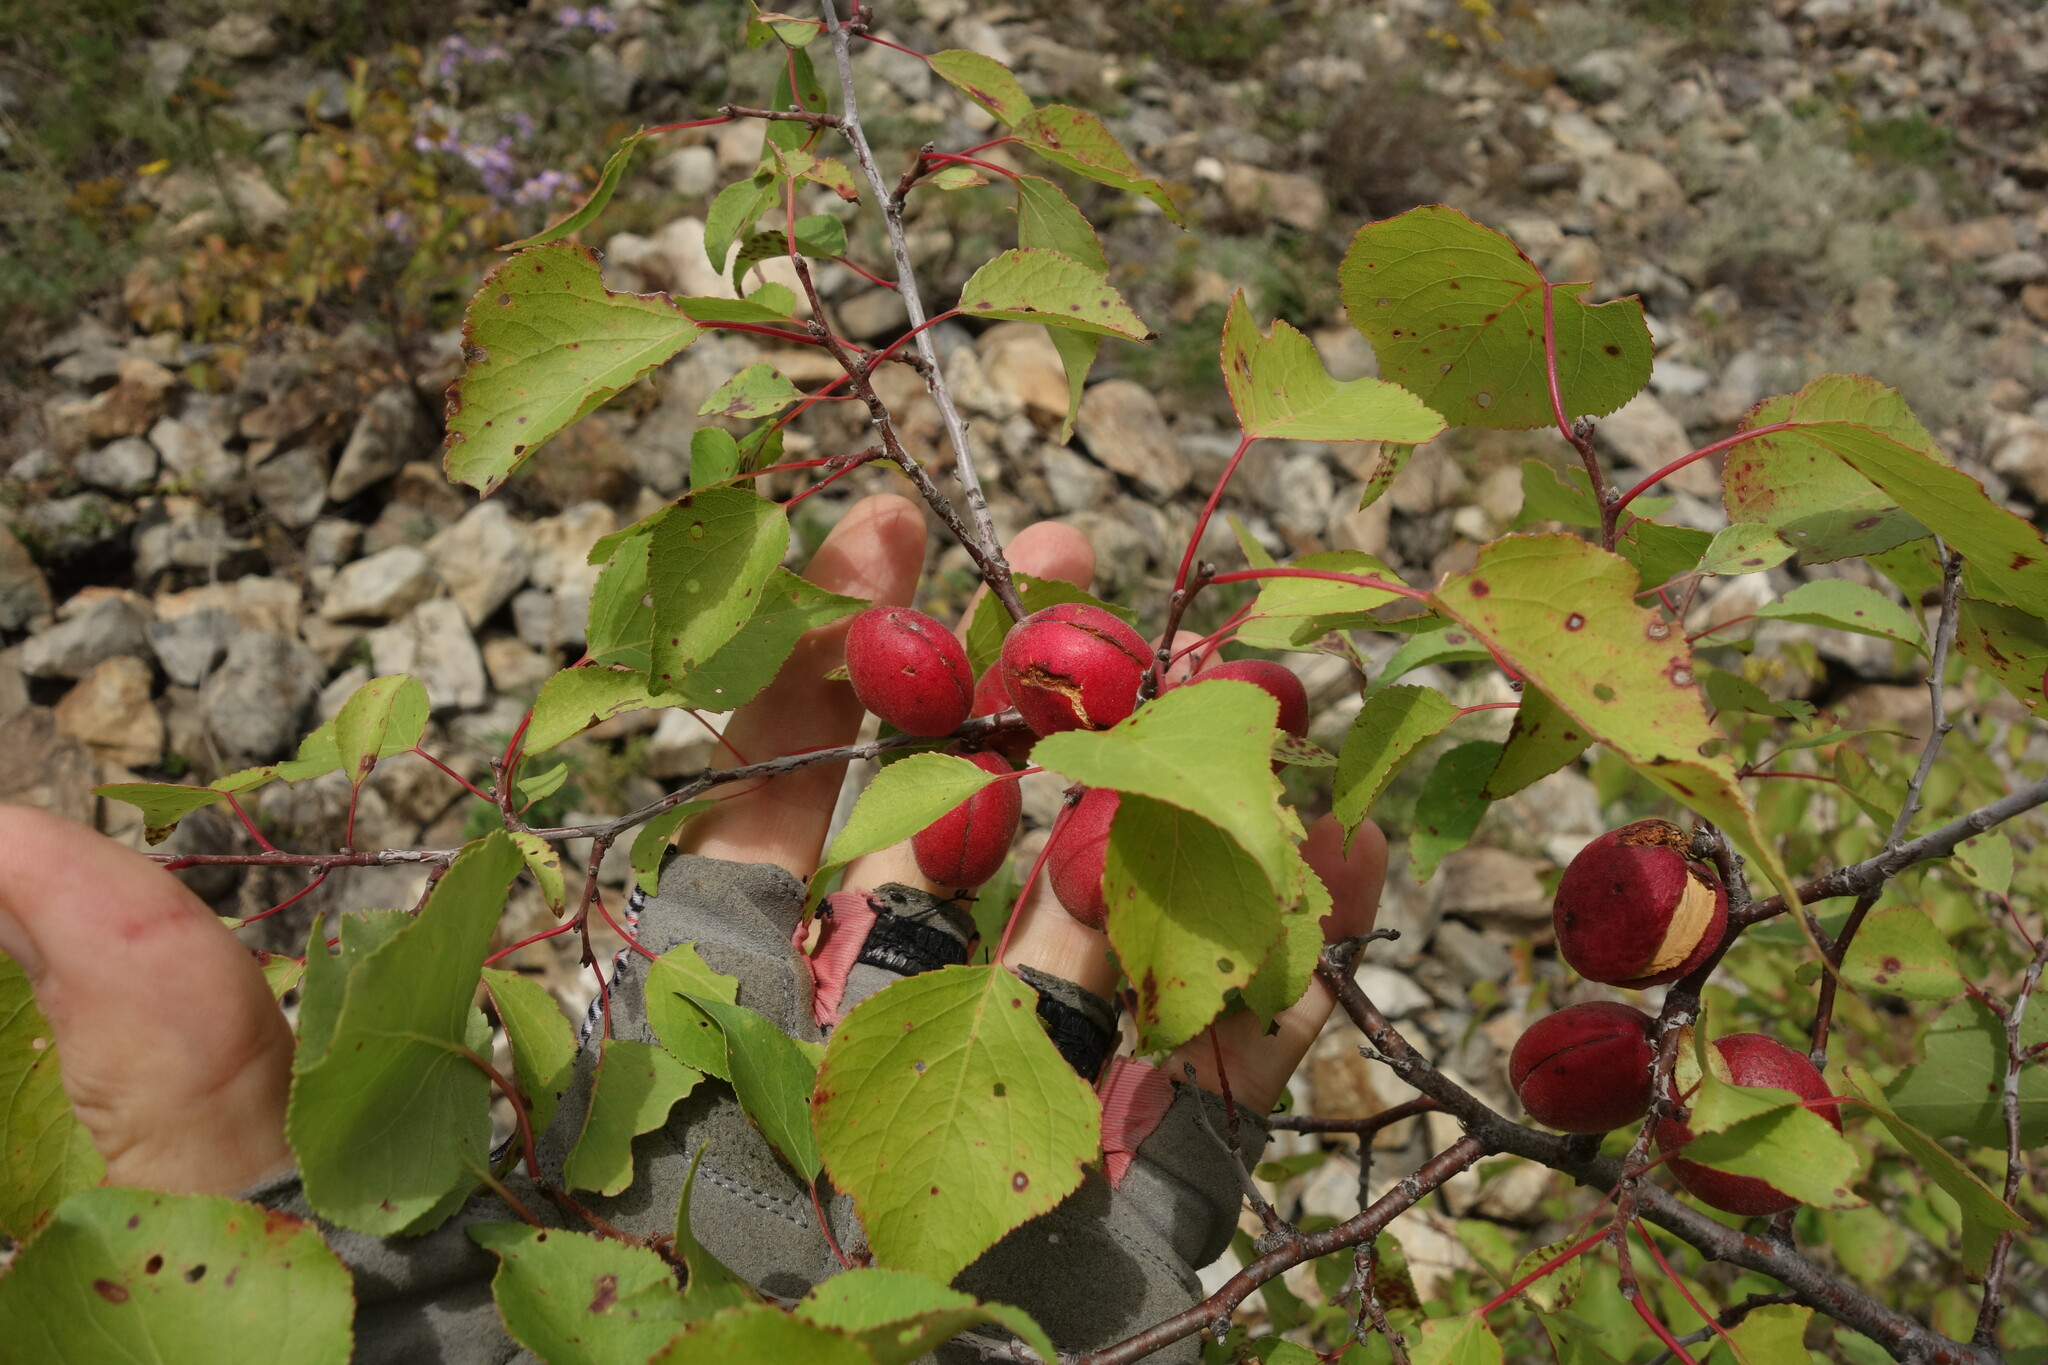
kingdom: Plantae
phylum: Tracheophyta
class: Magnoliopsida
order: Rosales
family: Rosaceae
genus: Prunus
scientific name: Prunus sibirica
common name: Siberian apricot
